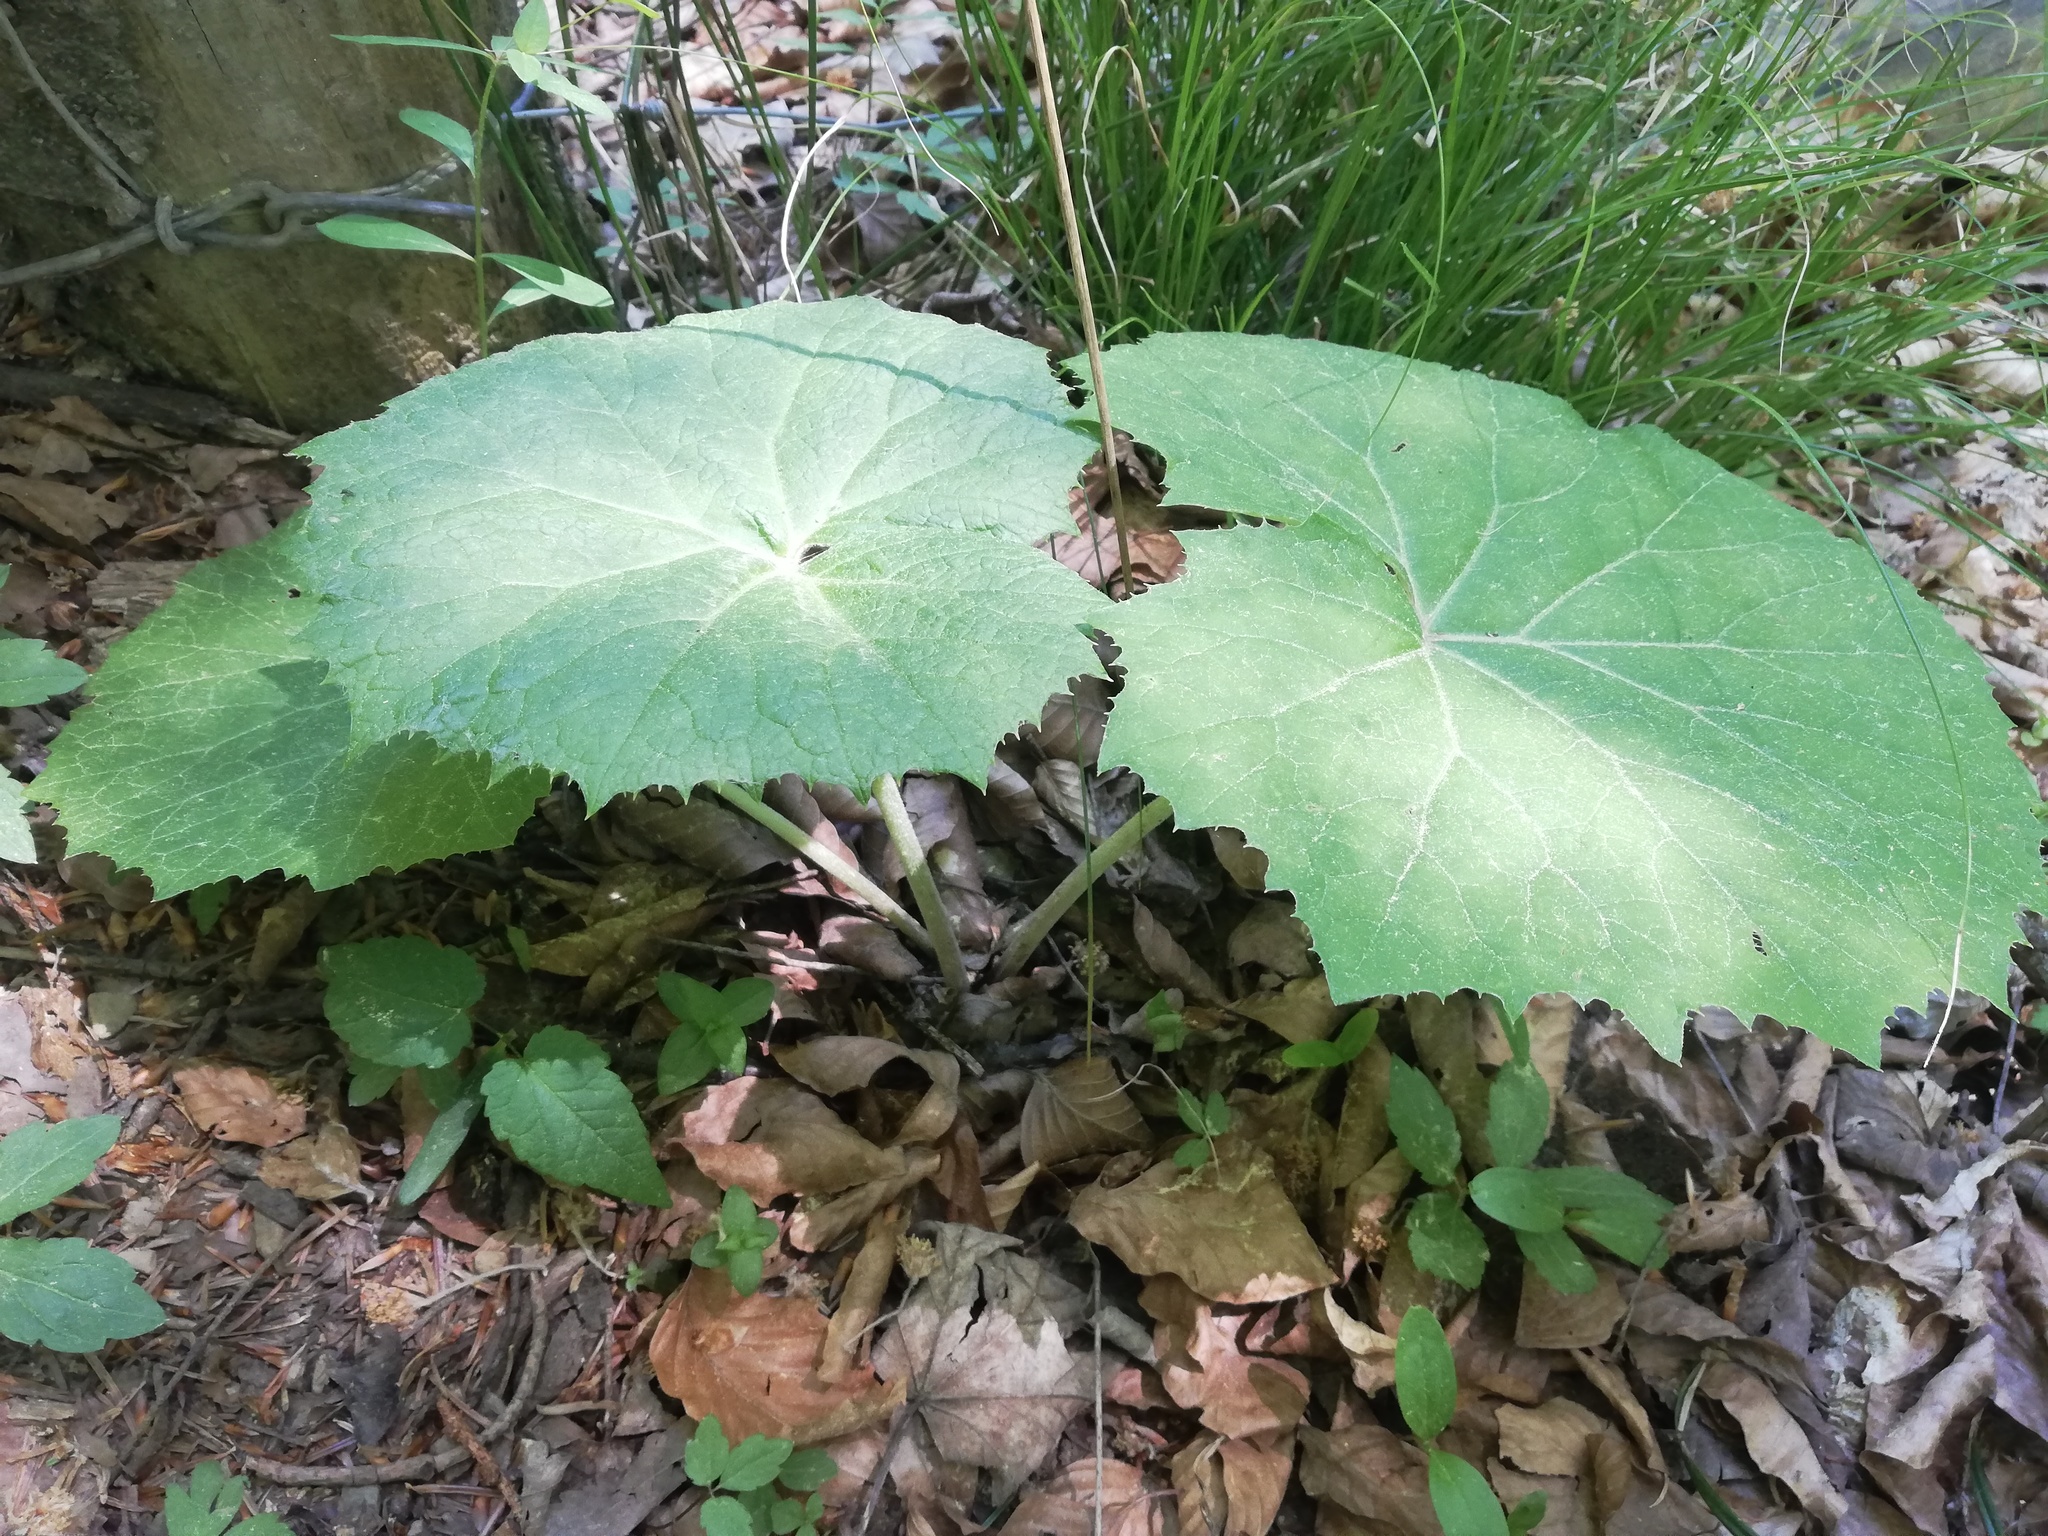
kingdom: Plantae
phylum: Tracheophyta
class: Magnoliopsida
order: Asterales
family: Asteraceae
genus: Petasites
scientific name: Petasites albus
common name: White butterbur
